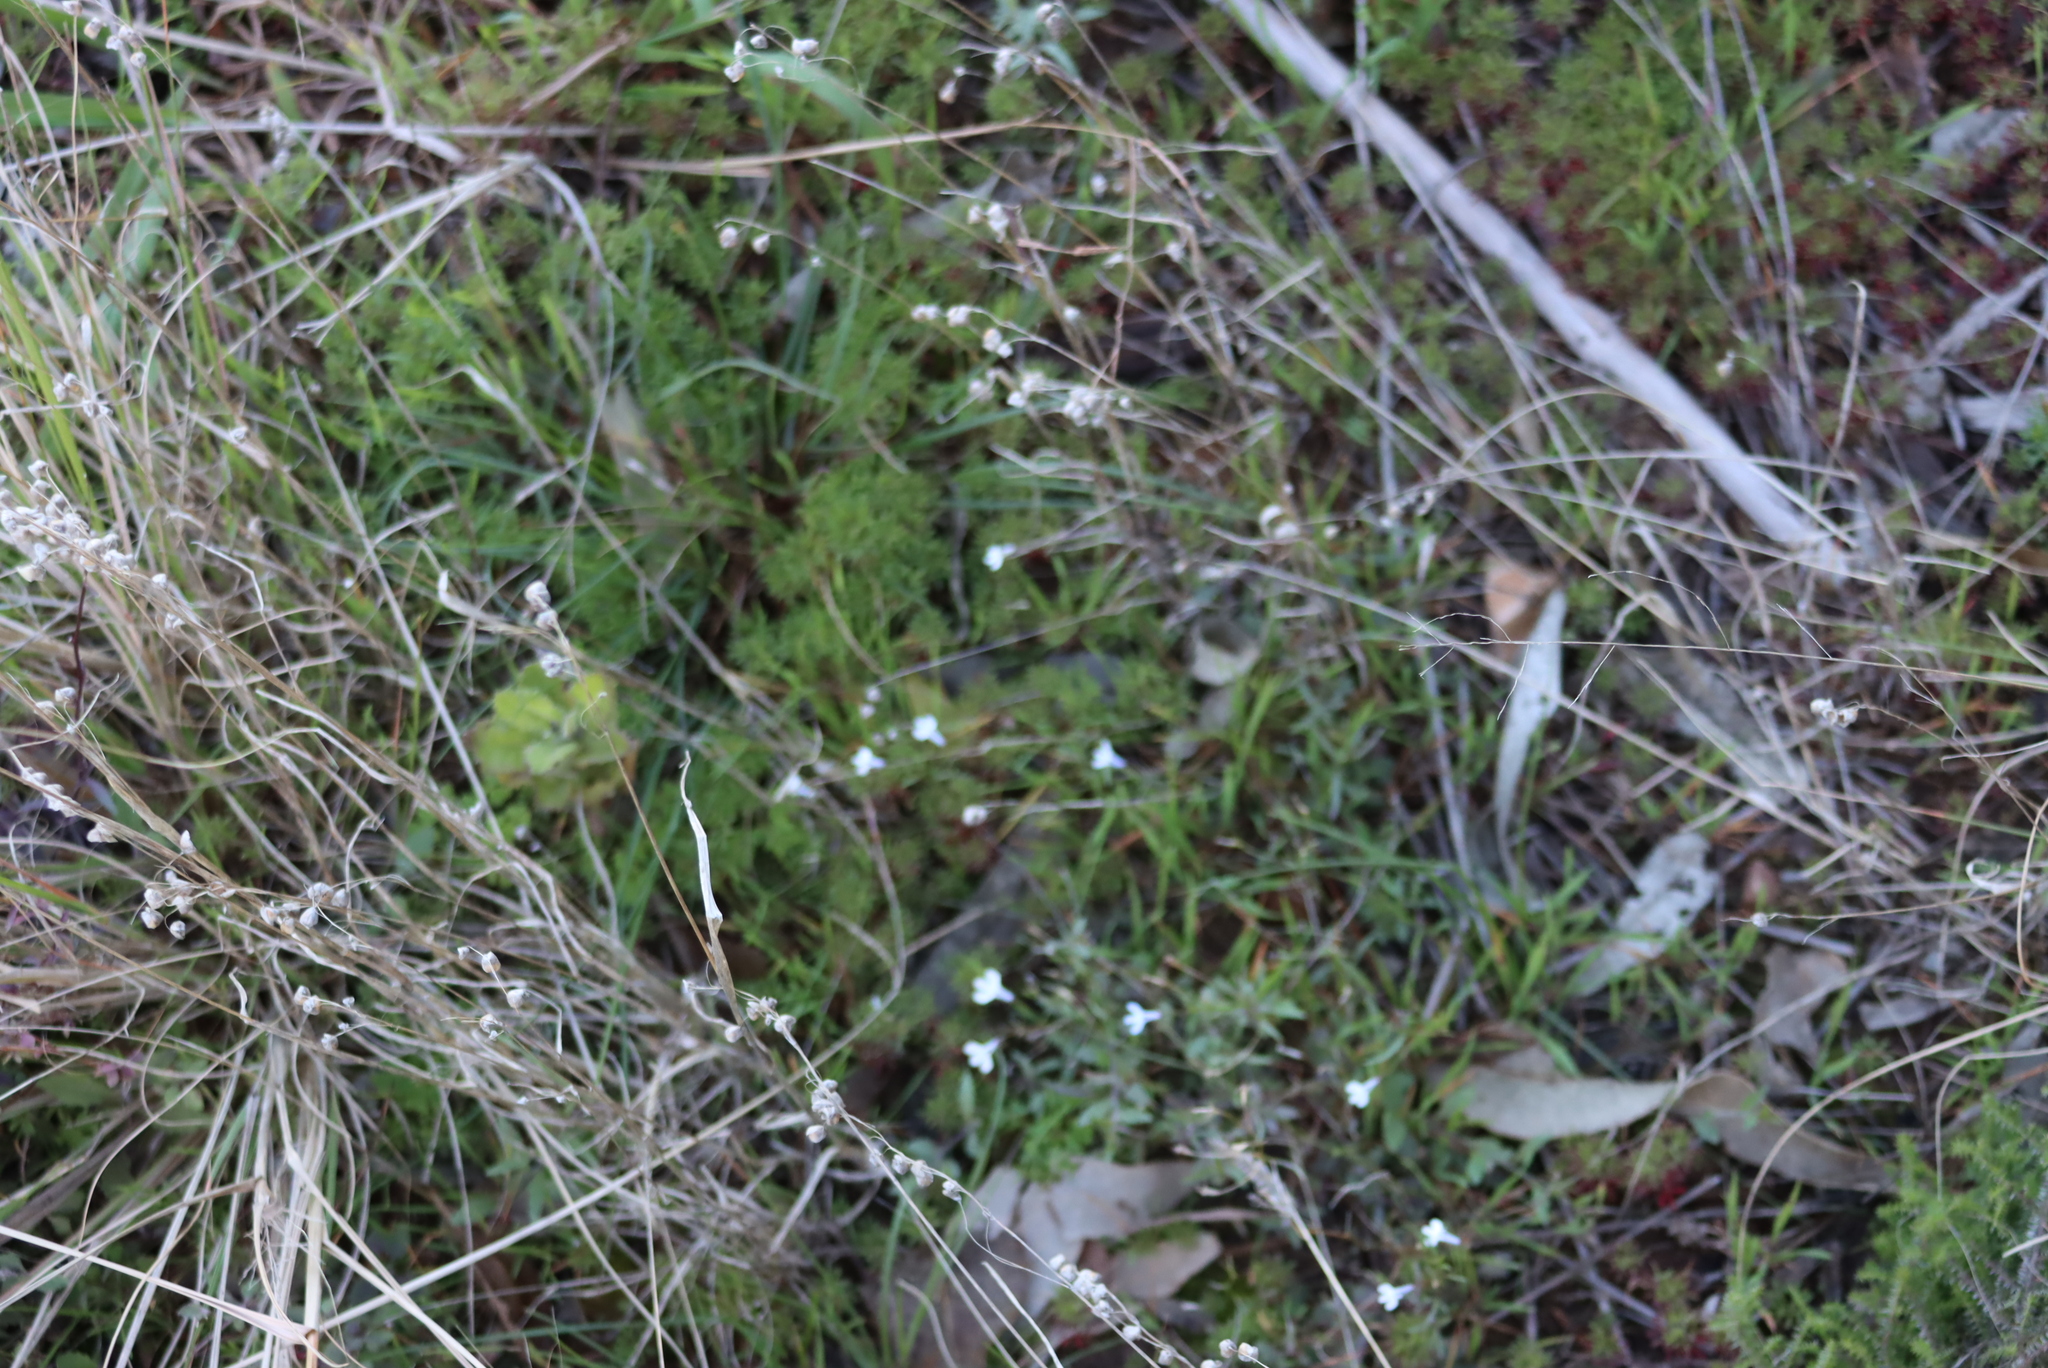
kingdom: Plantae
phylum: Tracheophyta
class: Magnoliopsida
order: Asterales
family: Campanulaceae
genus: Lobelia
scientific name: Lobelia erinus
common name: Edging lobelia
